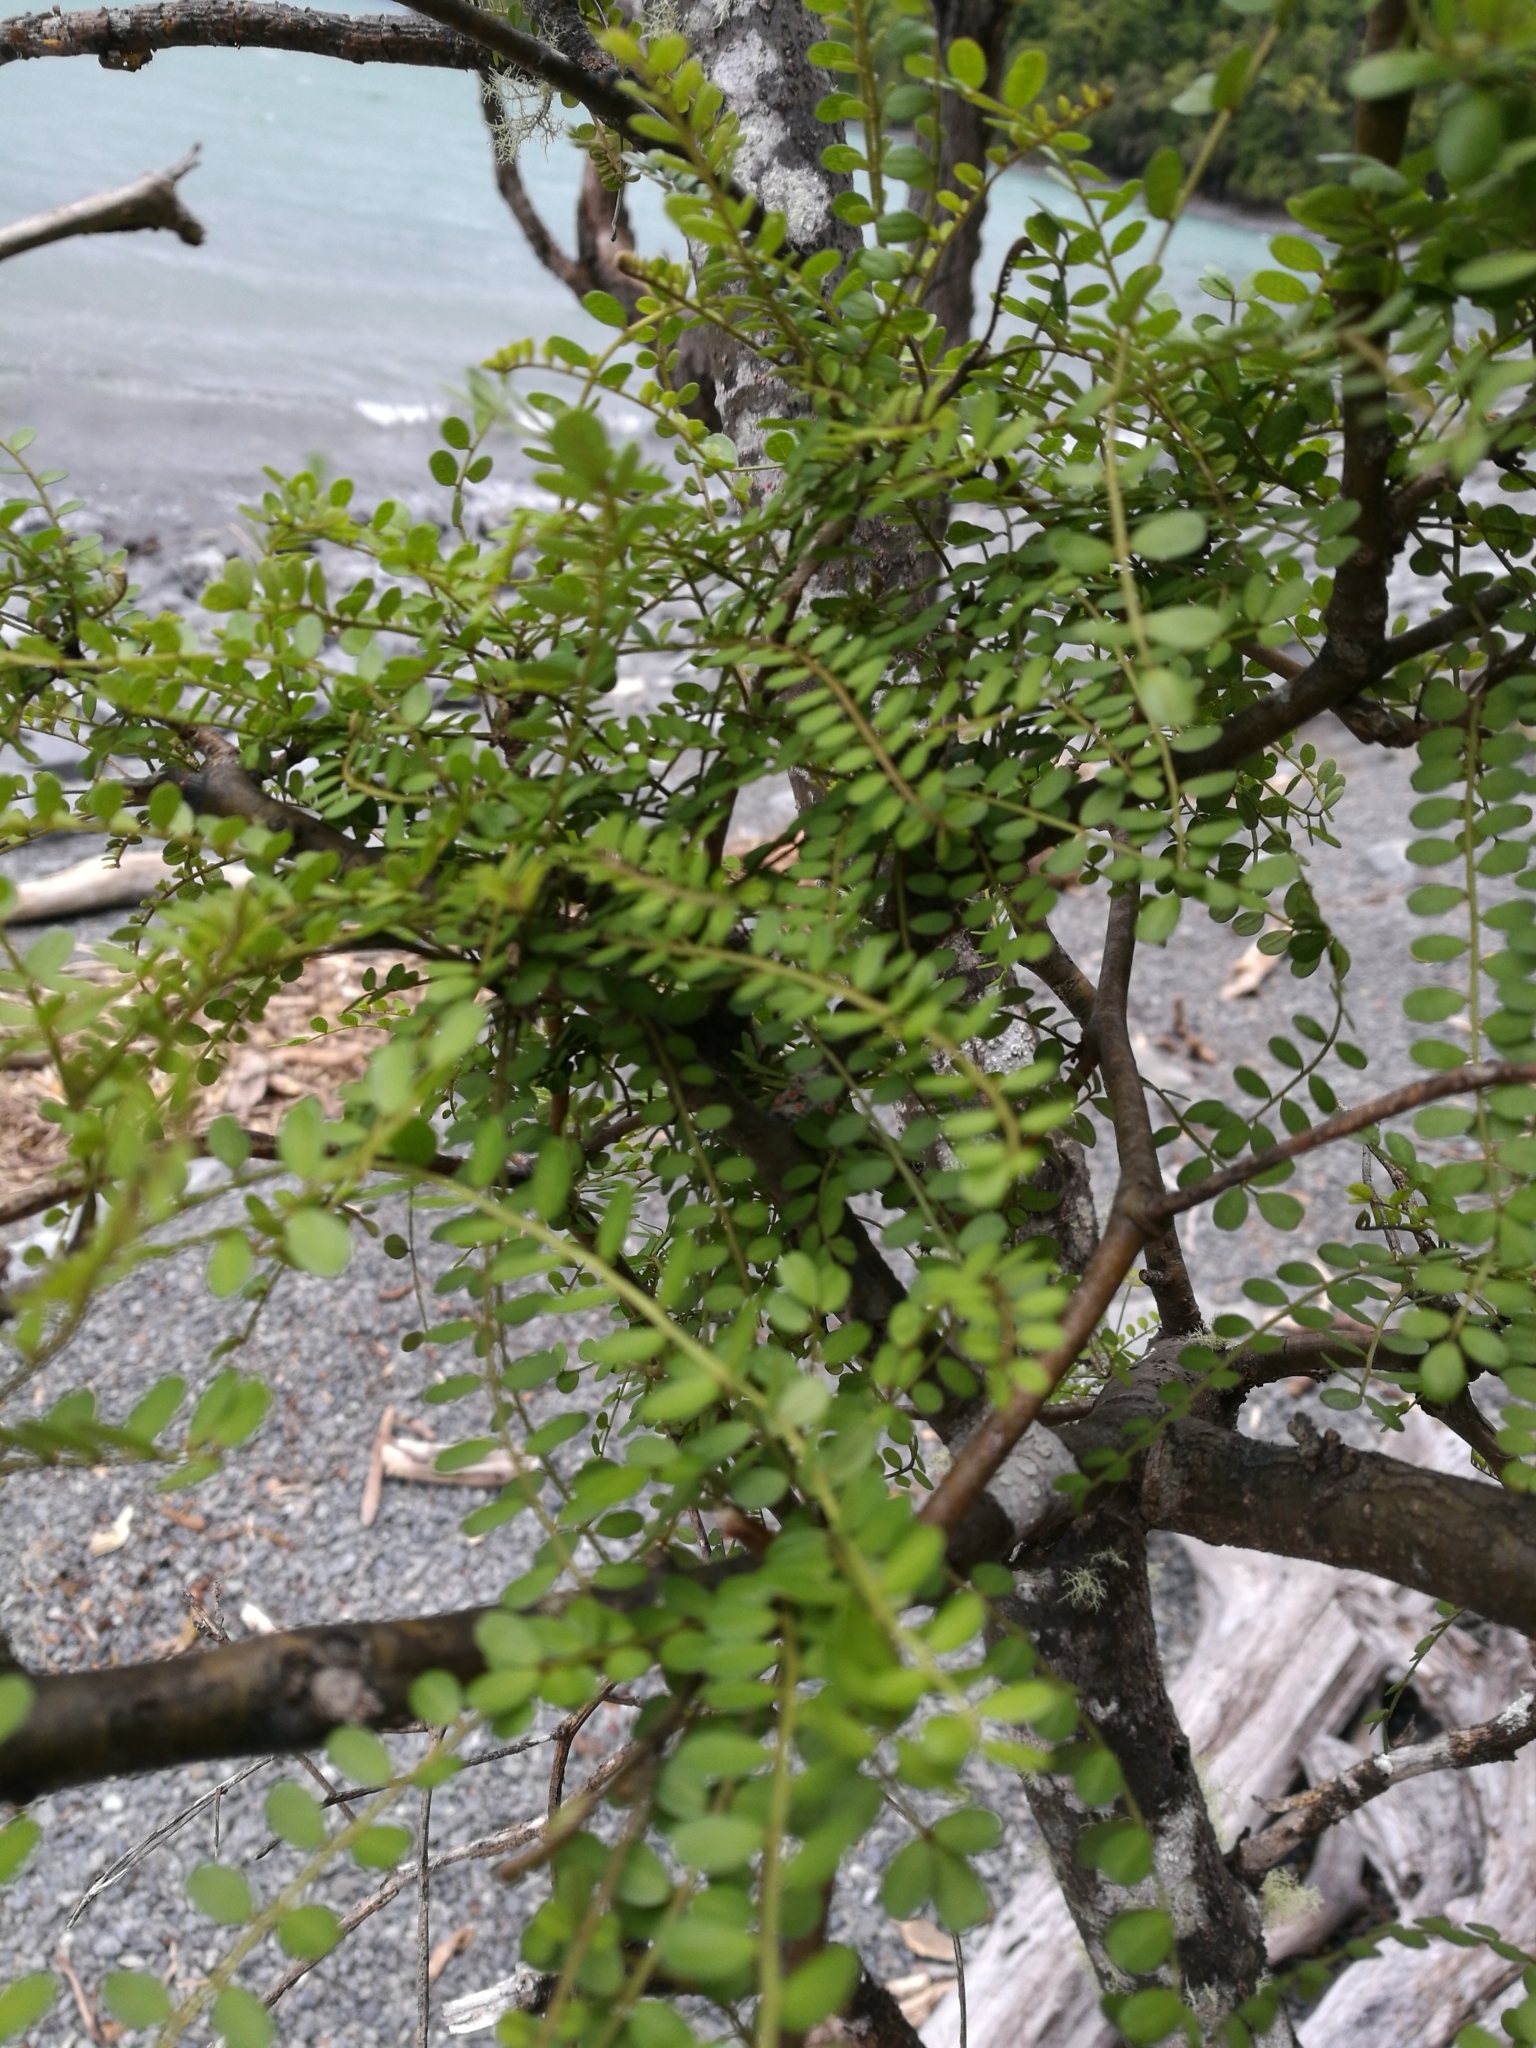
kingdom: Plantae
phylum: Tracheophyta
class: Magnoliopsida
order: Fabales
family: Fabaceae
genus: Sophora
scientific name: Sophora microphylla
